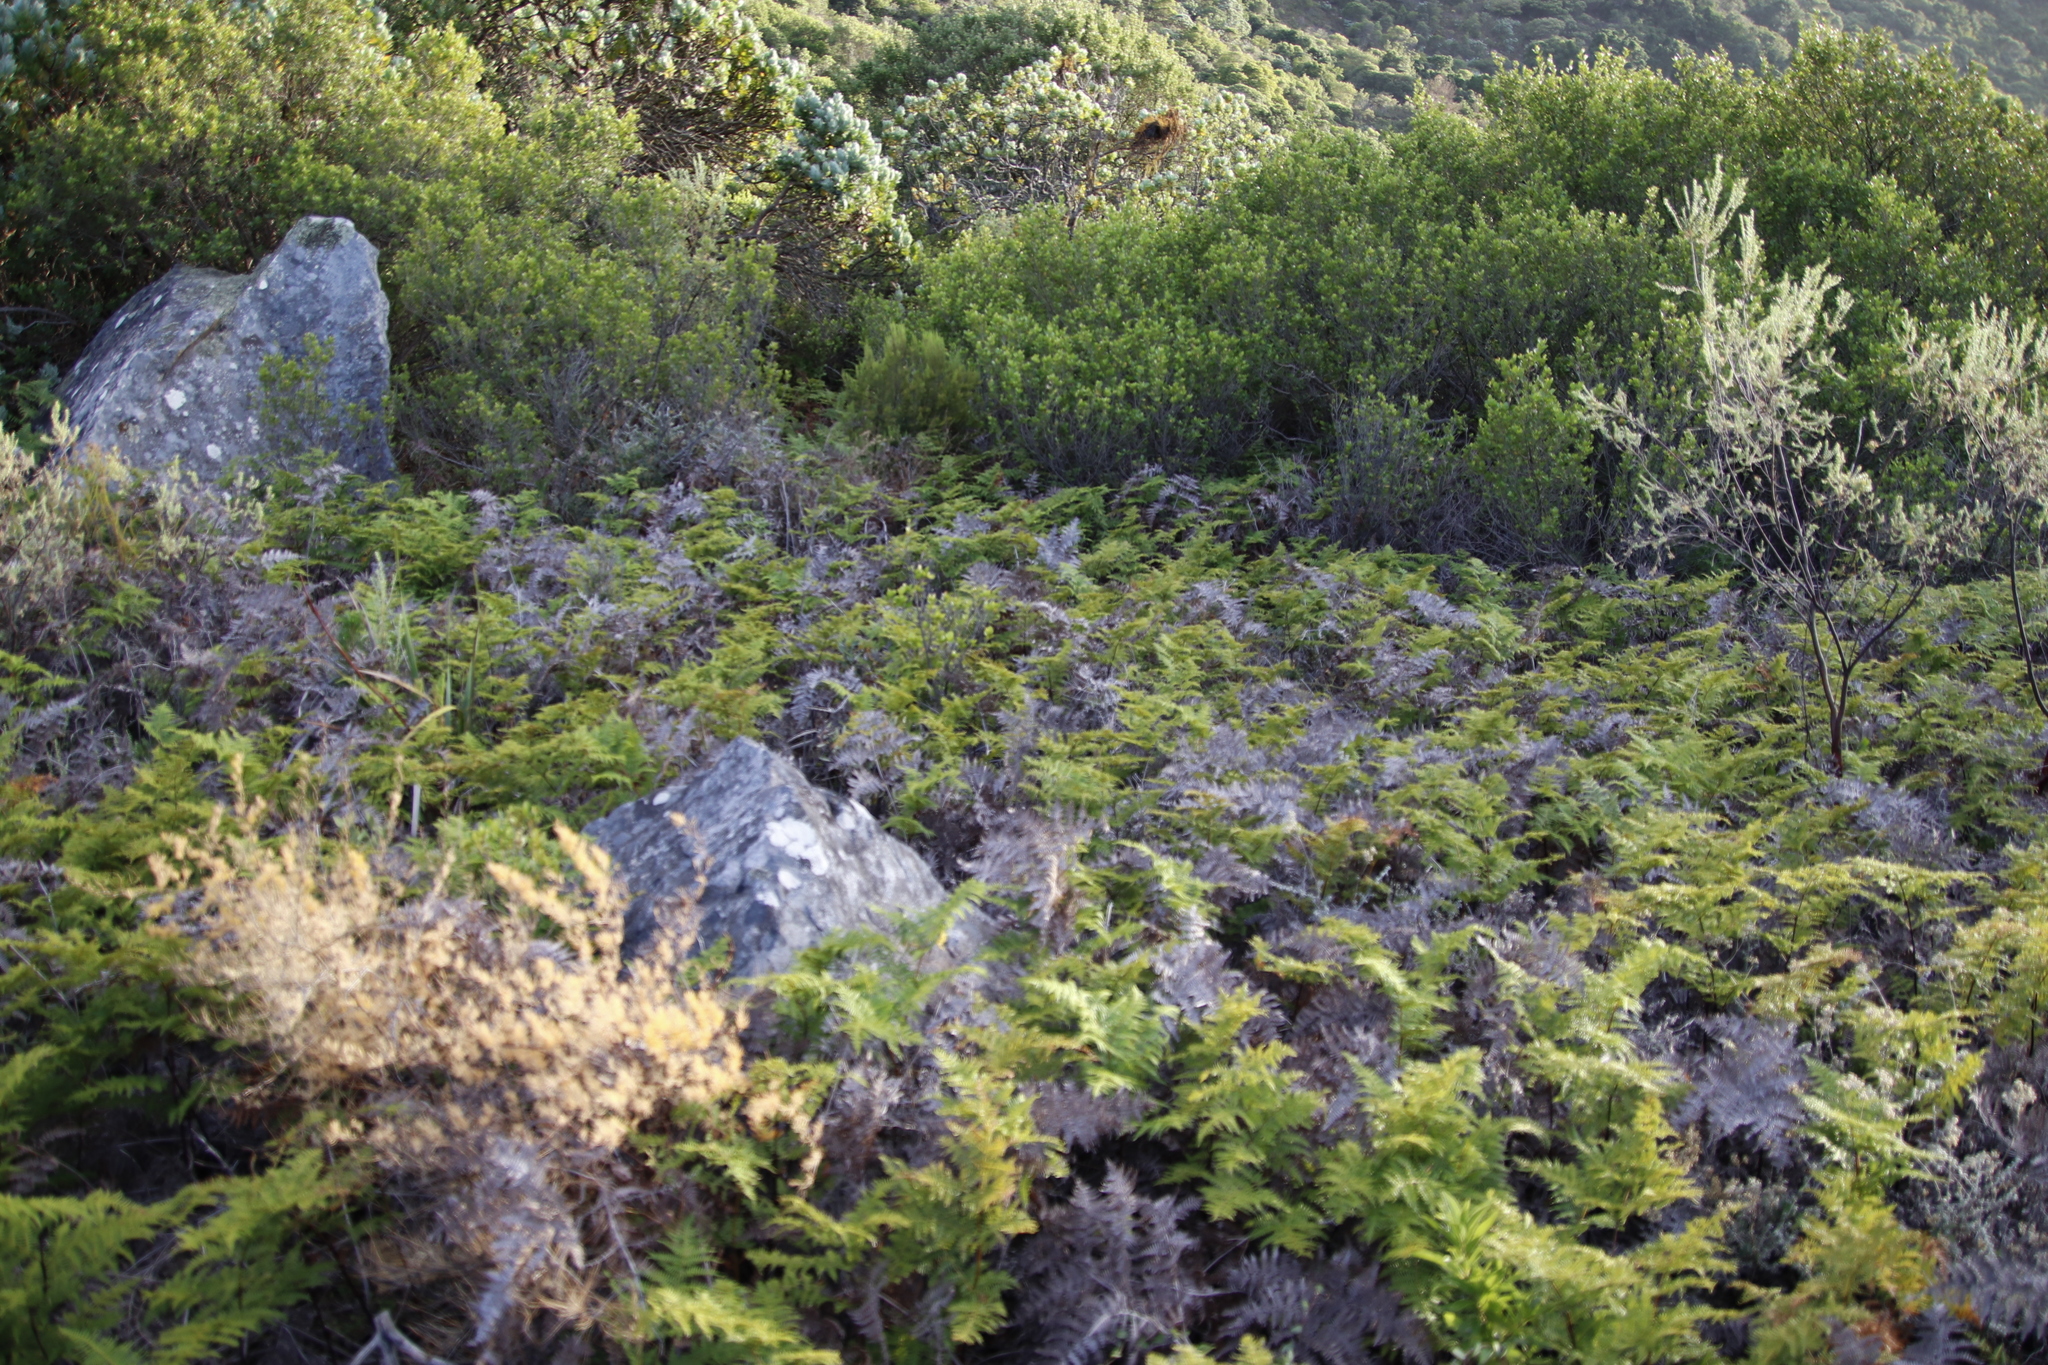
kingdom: Plantae
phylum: Tracheophyta
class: Polypodiopsida
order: Polypodiales
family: Dennstaedtiaceae
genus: Pteridium
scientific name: Pteridium aquilinum
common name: Bracken
